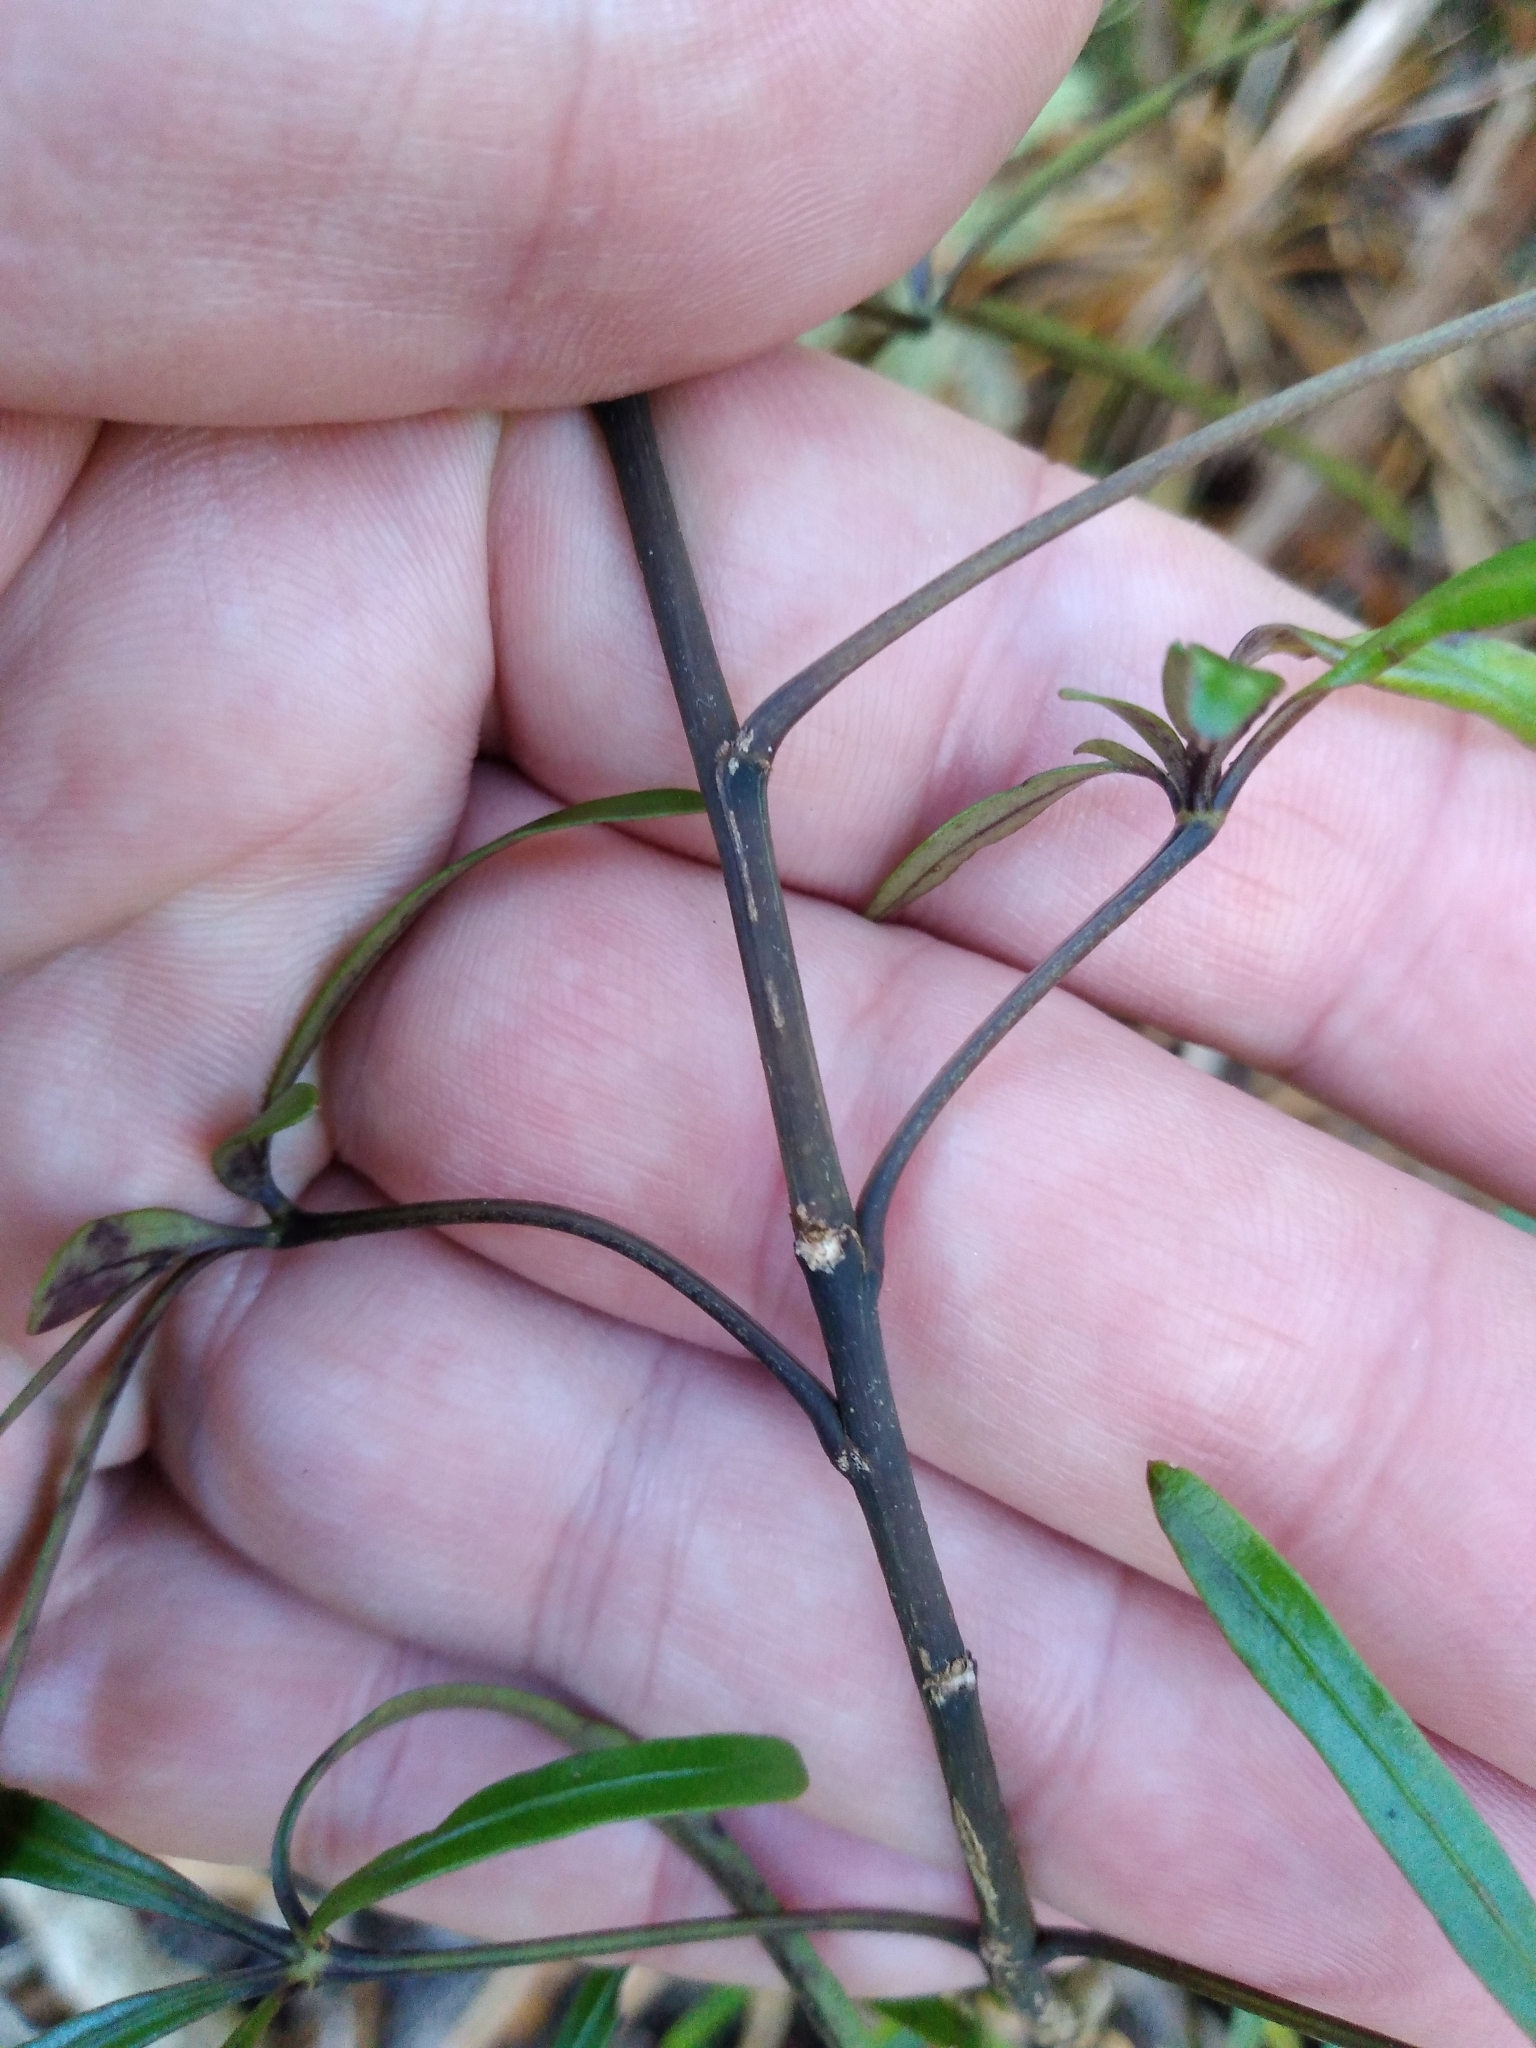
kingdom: Plantae
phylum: Tracheophyta
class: Magnoliopsida
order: Apiales
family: Araliaceae
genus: Raukaua
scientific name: Raukaua simplex
